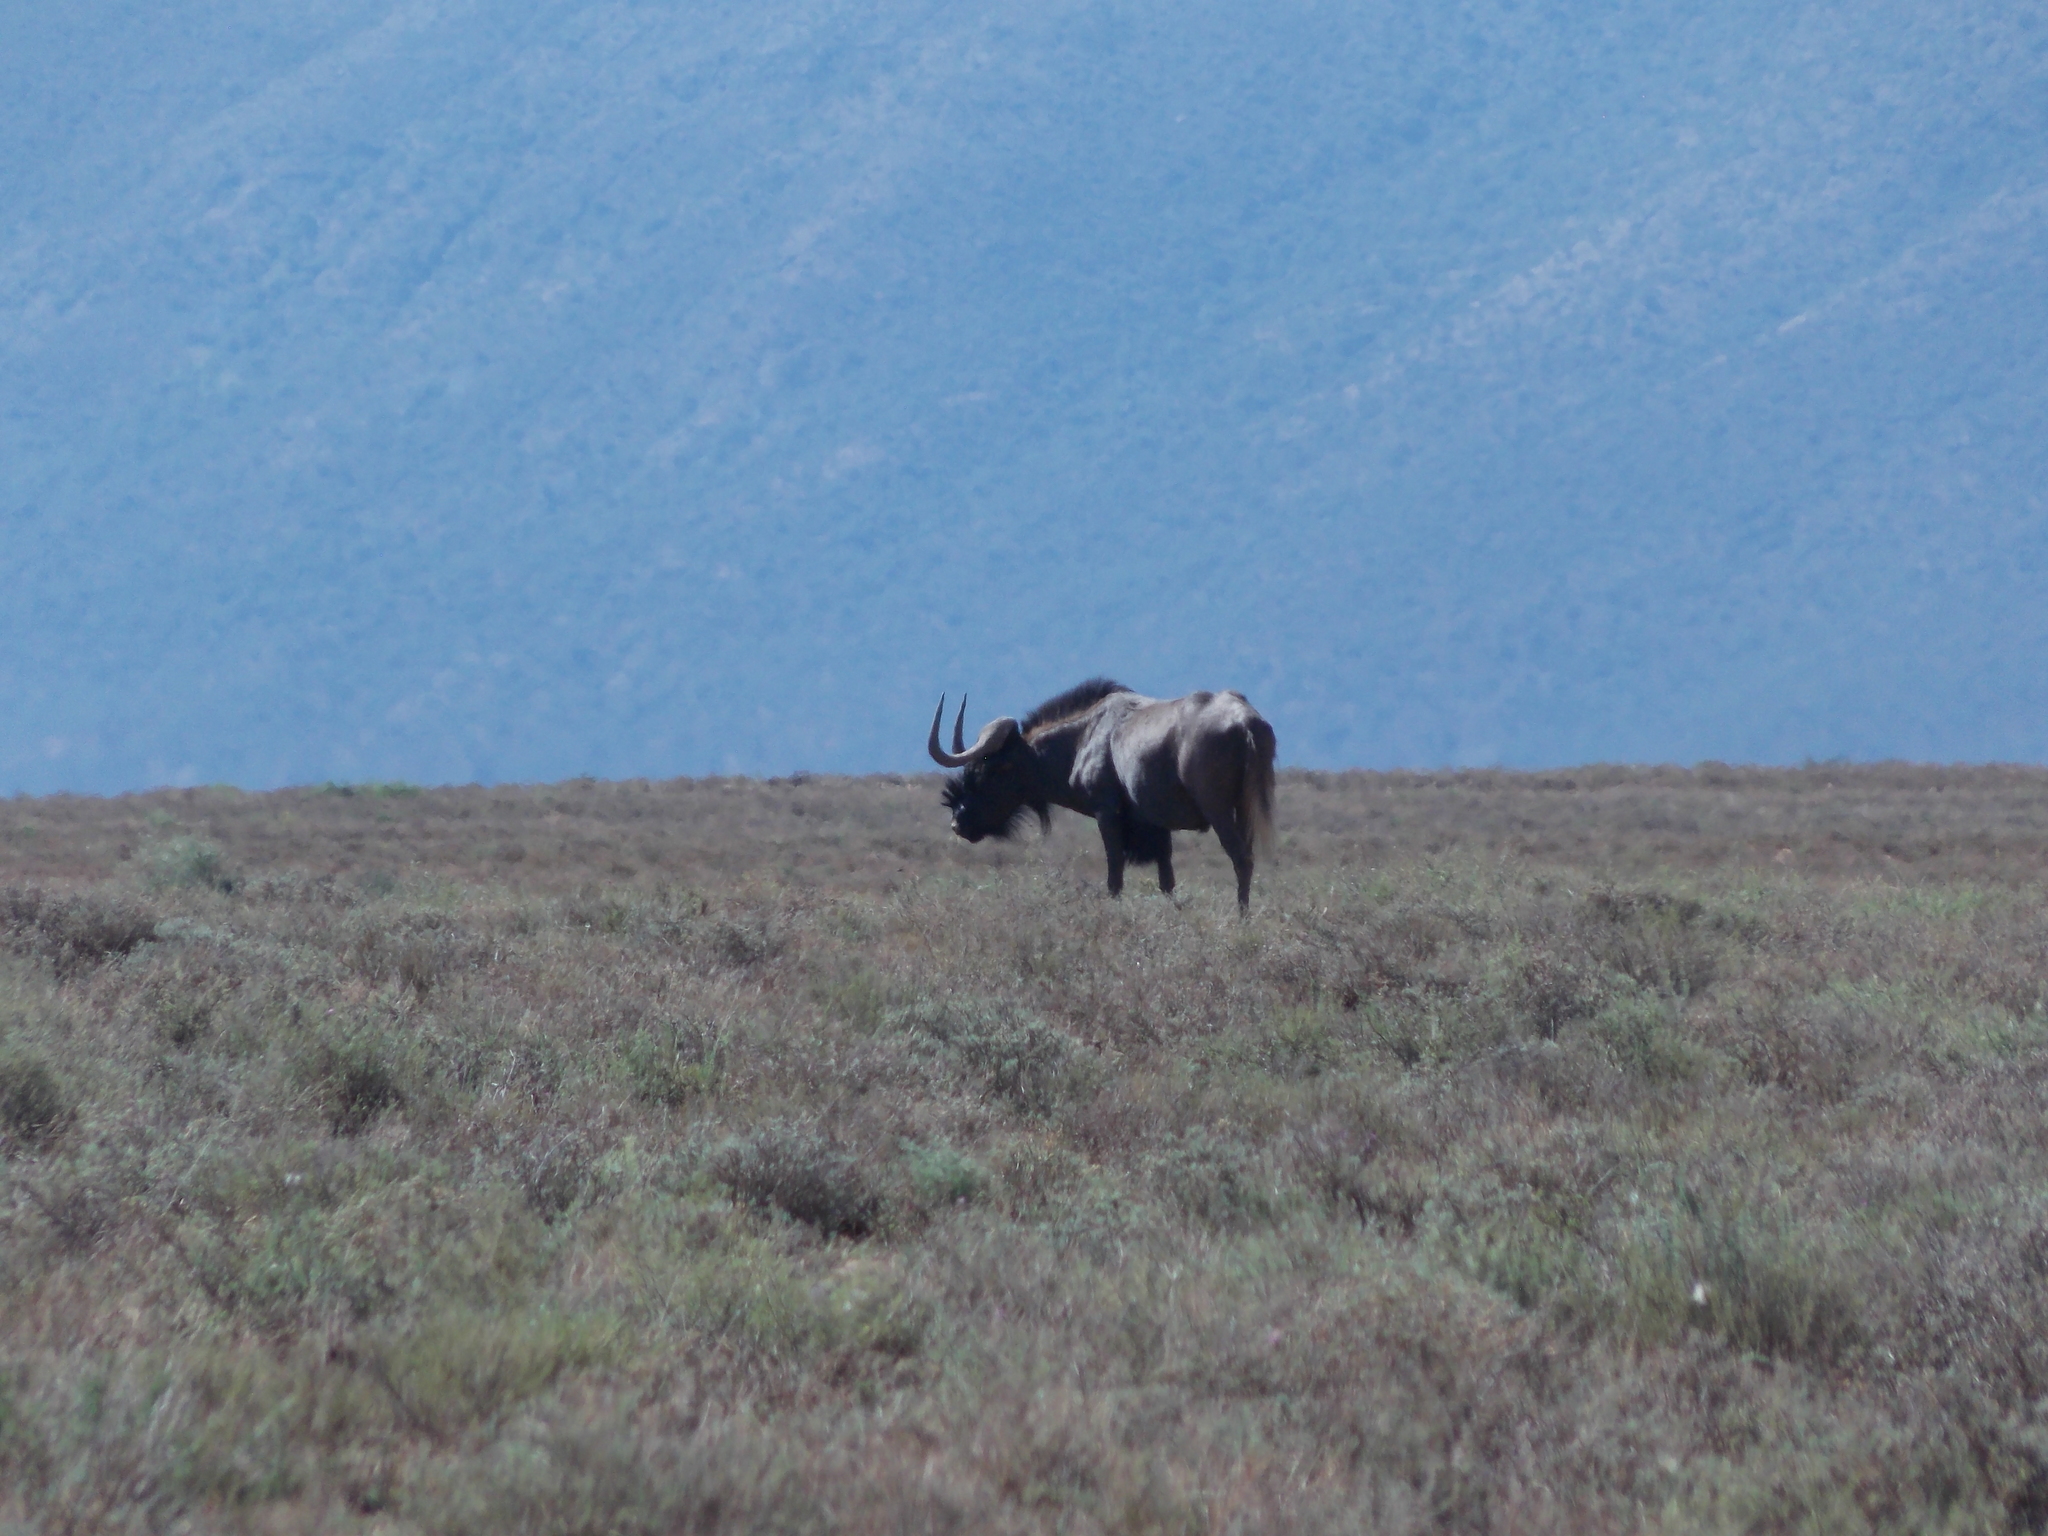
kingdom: Animalia
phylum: Chordata
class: Mammalia
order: Artiodactyla
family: Bovidae
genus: Connochaetes
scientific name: Connochaetes gnou
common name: Black wildebeest
